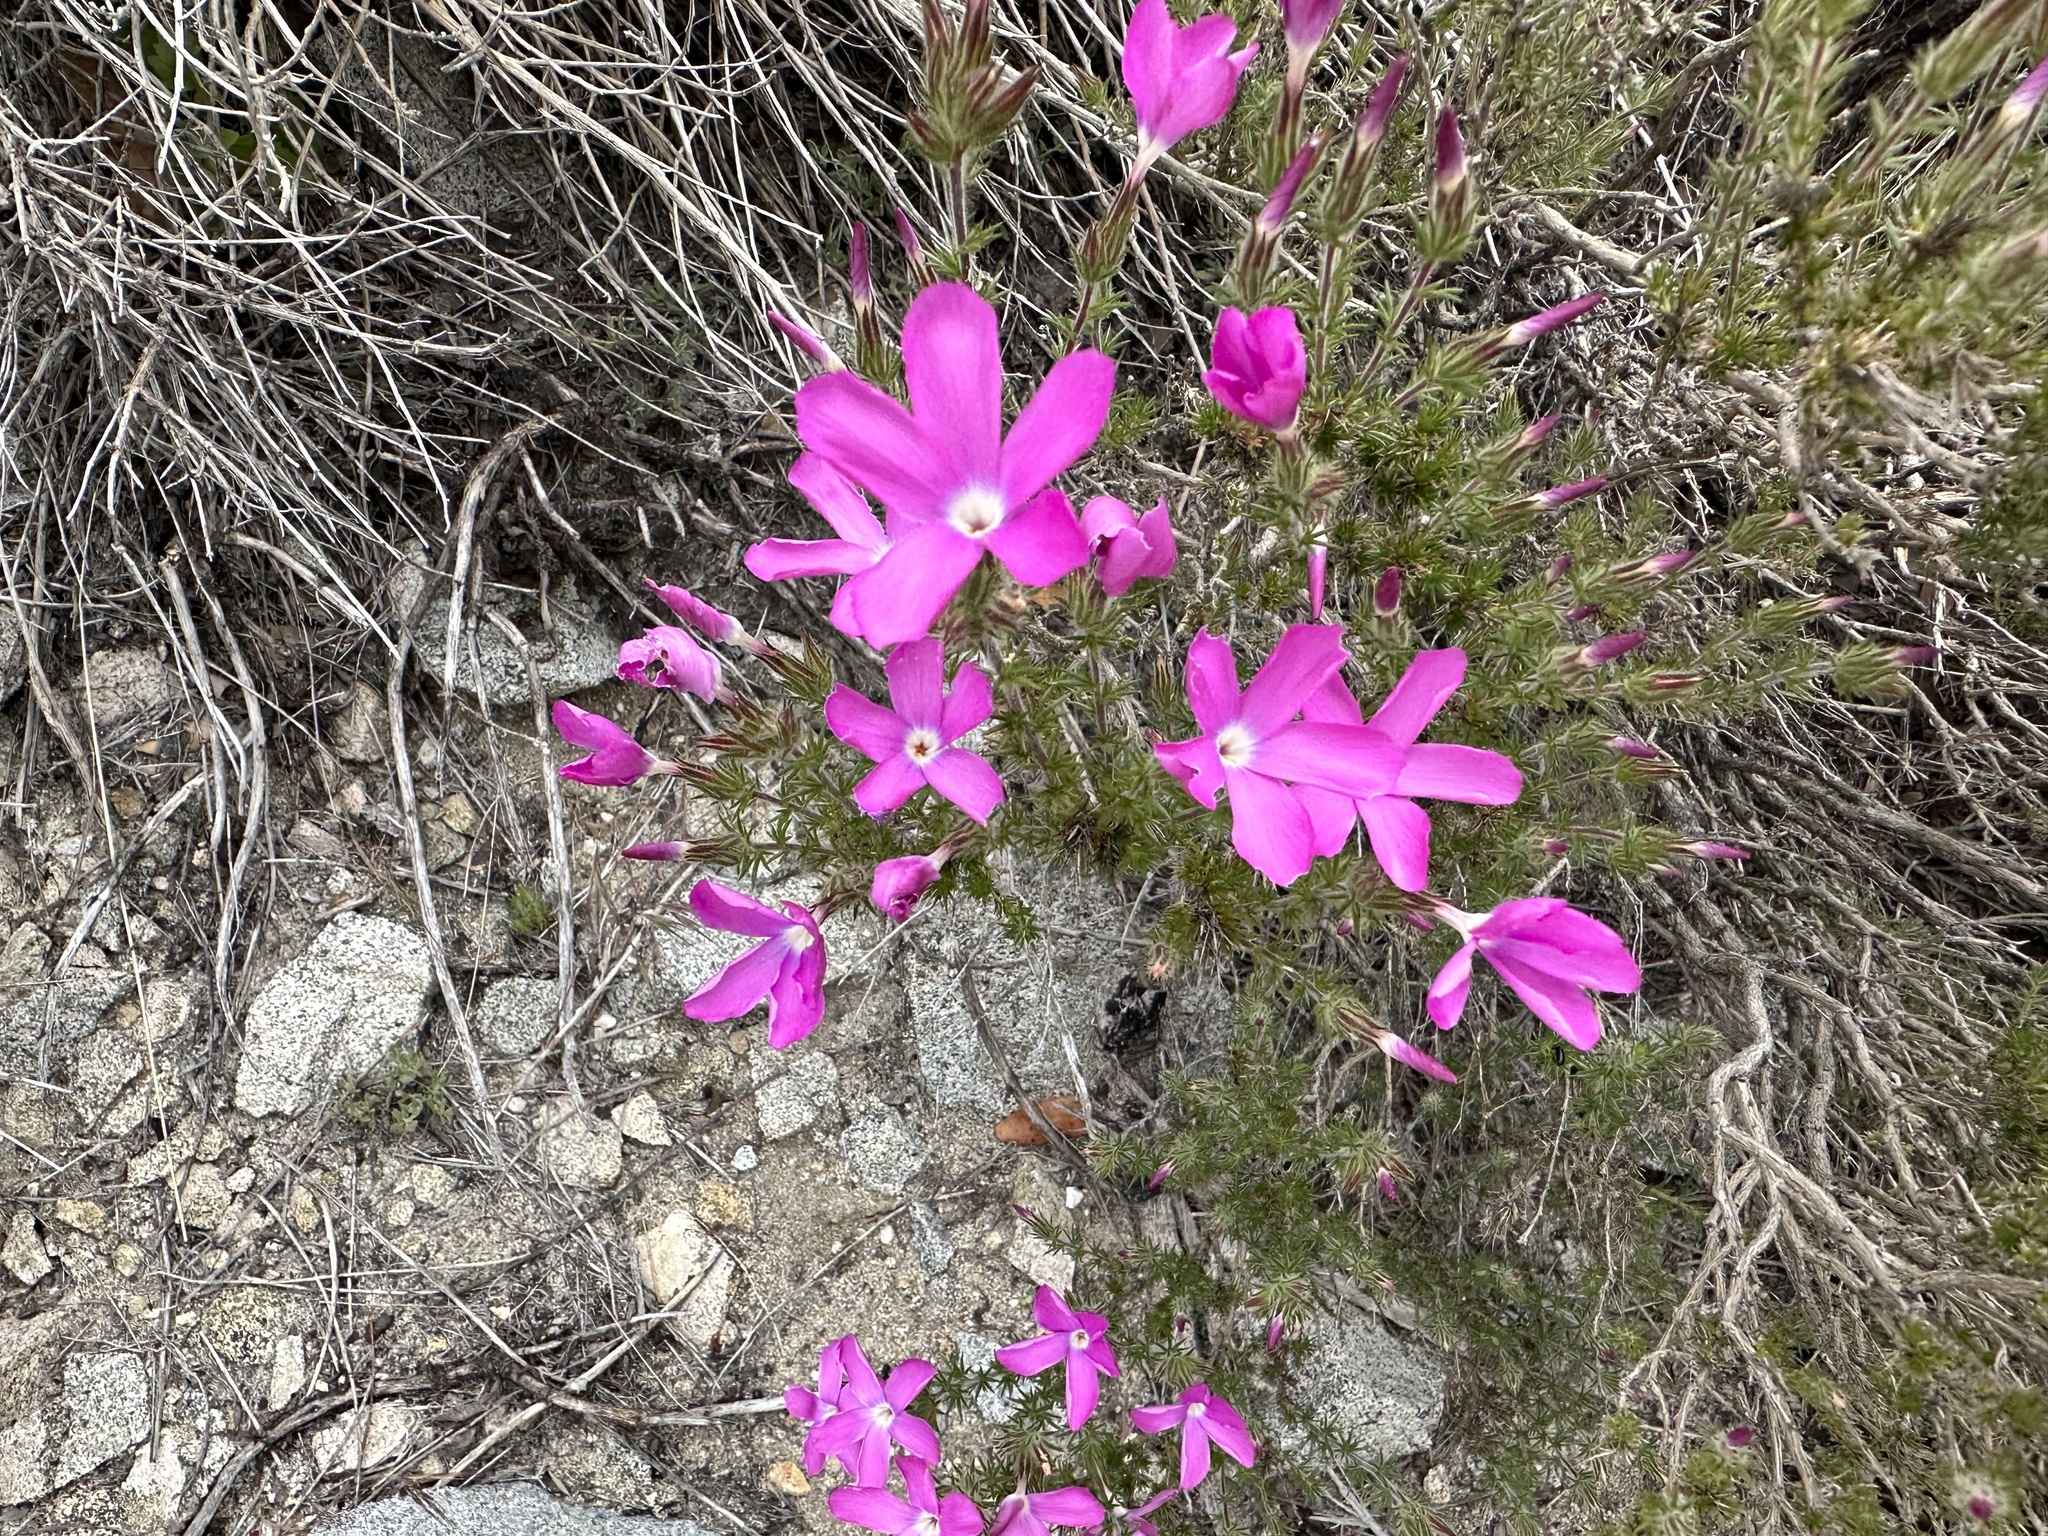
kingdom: Plantae
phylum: Tracheophyta
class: Magnoliopsida
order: Ericales
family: Polemoniaceae
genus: Linanthus
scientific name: Linanthus californicus
